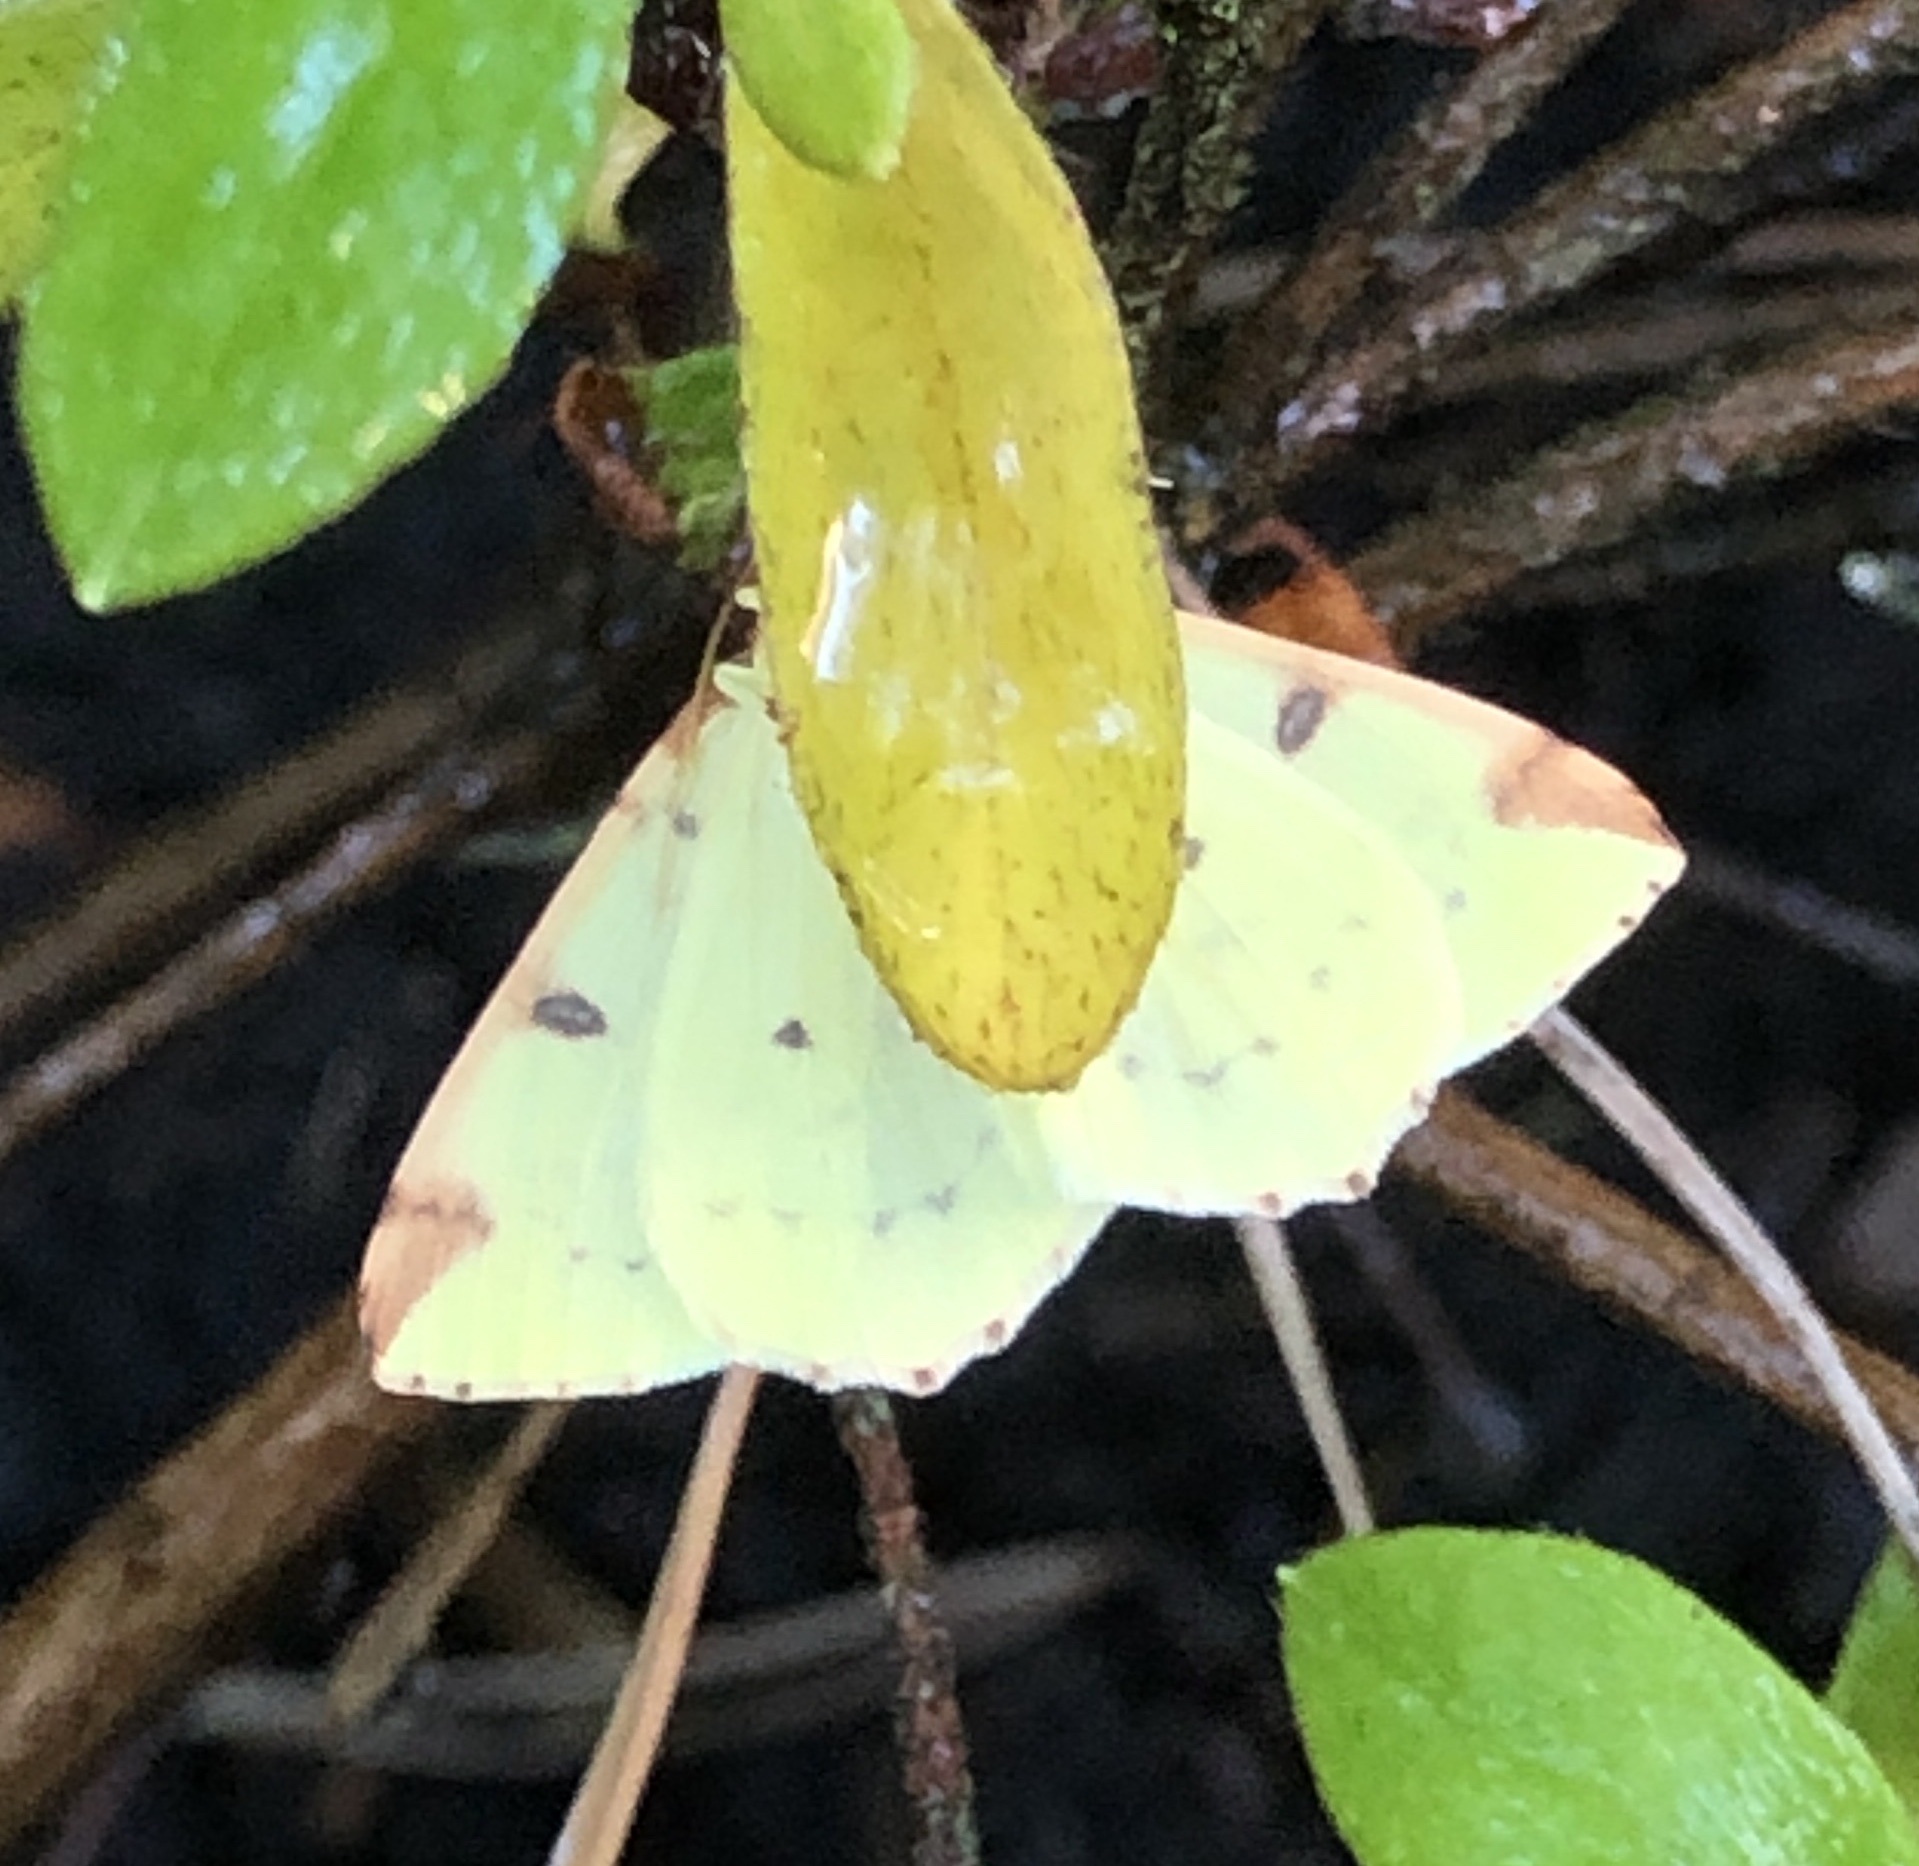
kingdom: Animalia
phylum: Arthropoda
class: Insecta
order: Lepidoptera
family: Geometridae
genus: Opisthograptis
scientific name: Opisthograptis luteolata
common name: Brimstone moth
